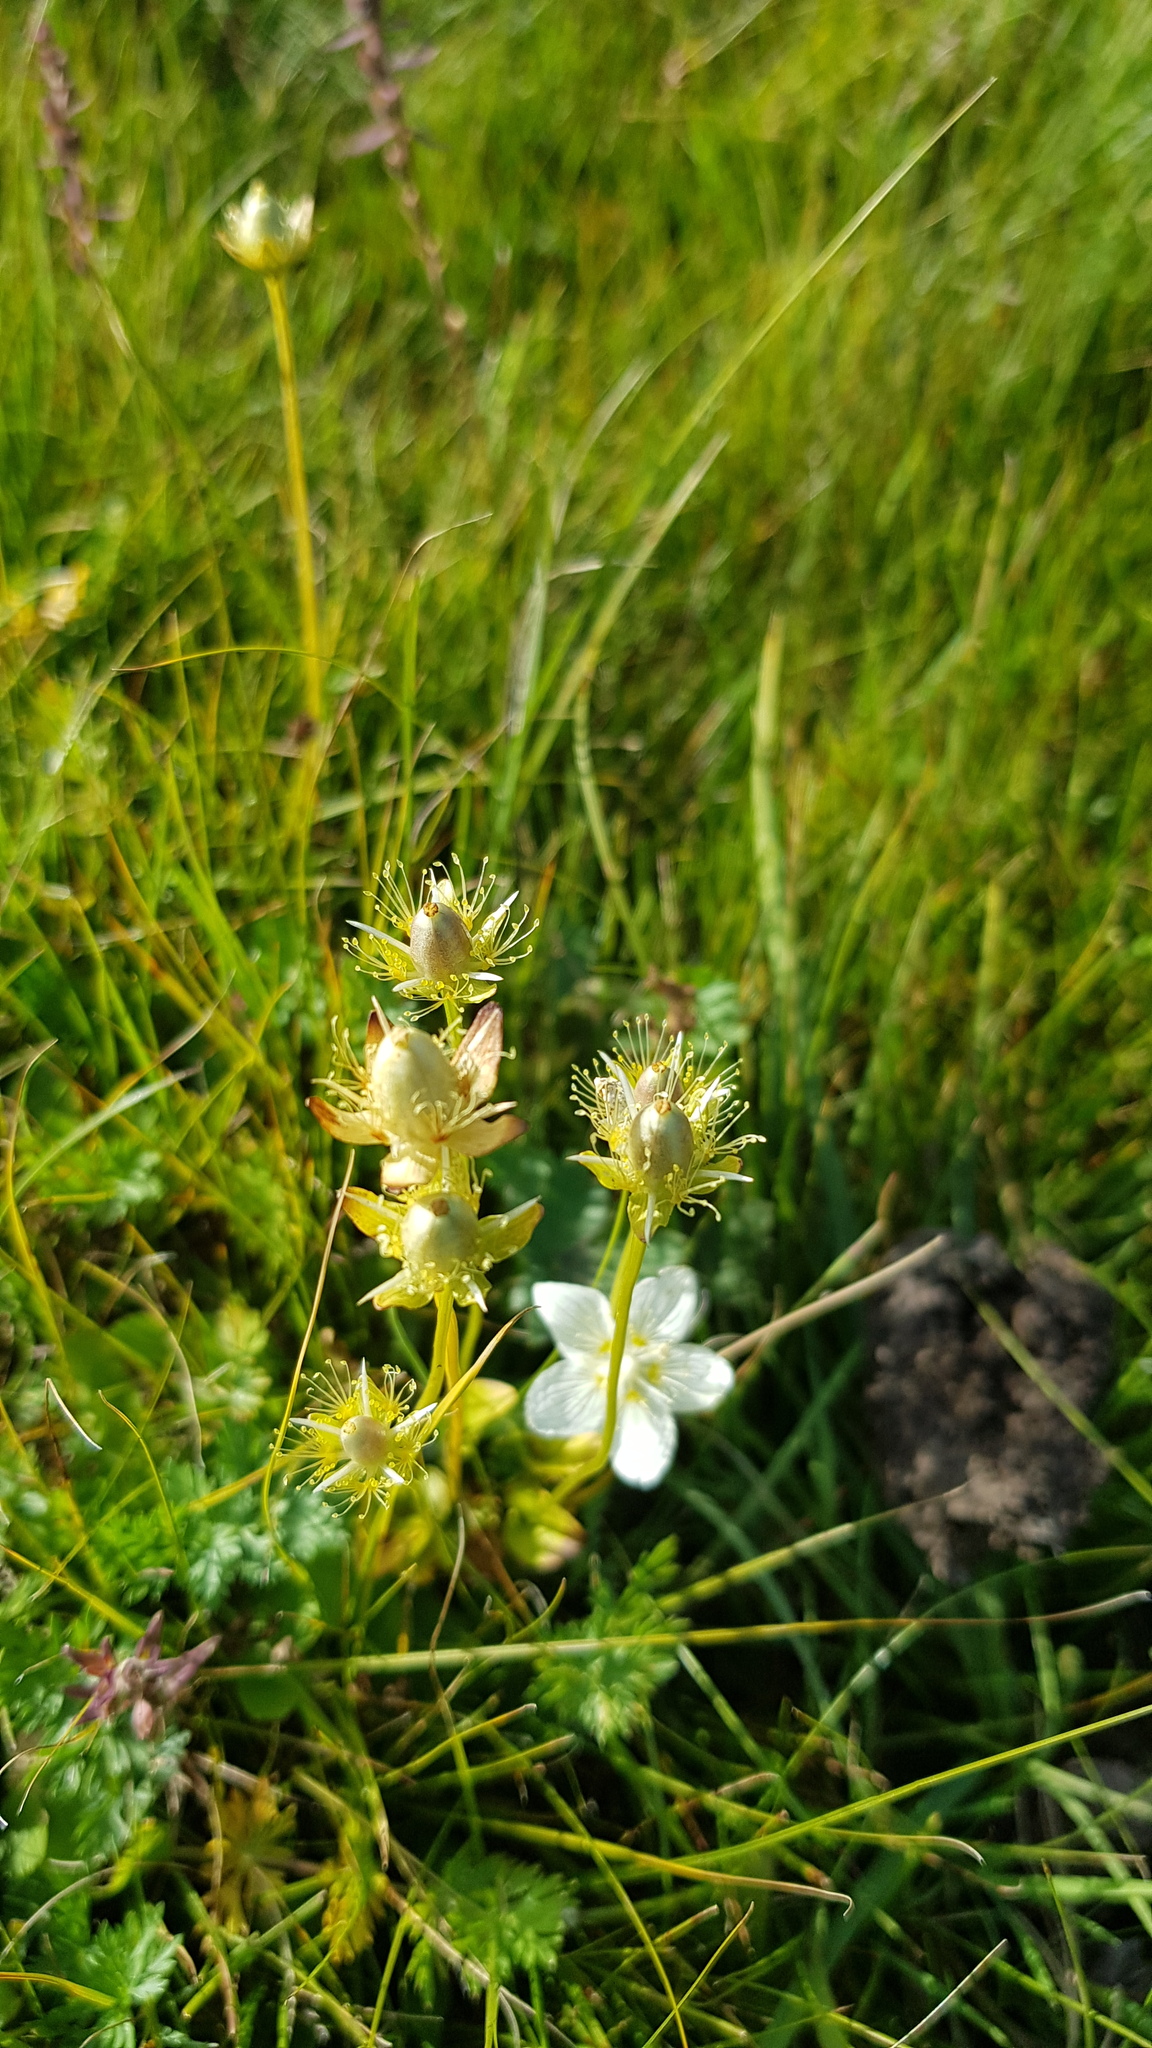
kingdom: Plantae
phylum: Tracheophyta
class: Magnoliopsida
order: Celastrales
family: Parnassiaceae
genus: Parnassia
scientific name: Parnassia palustris
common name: Grass-of-parnassus
